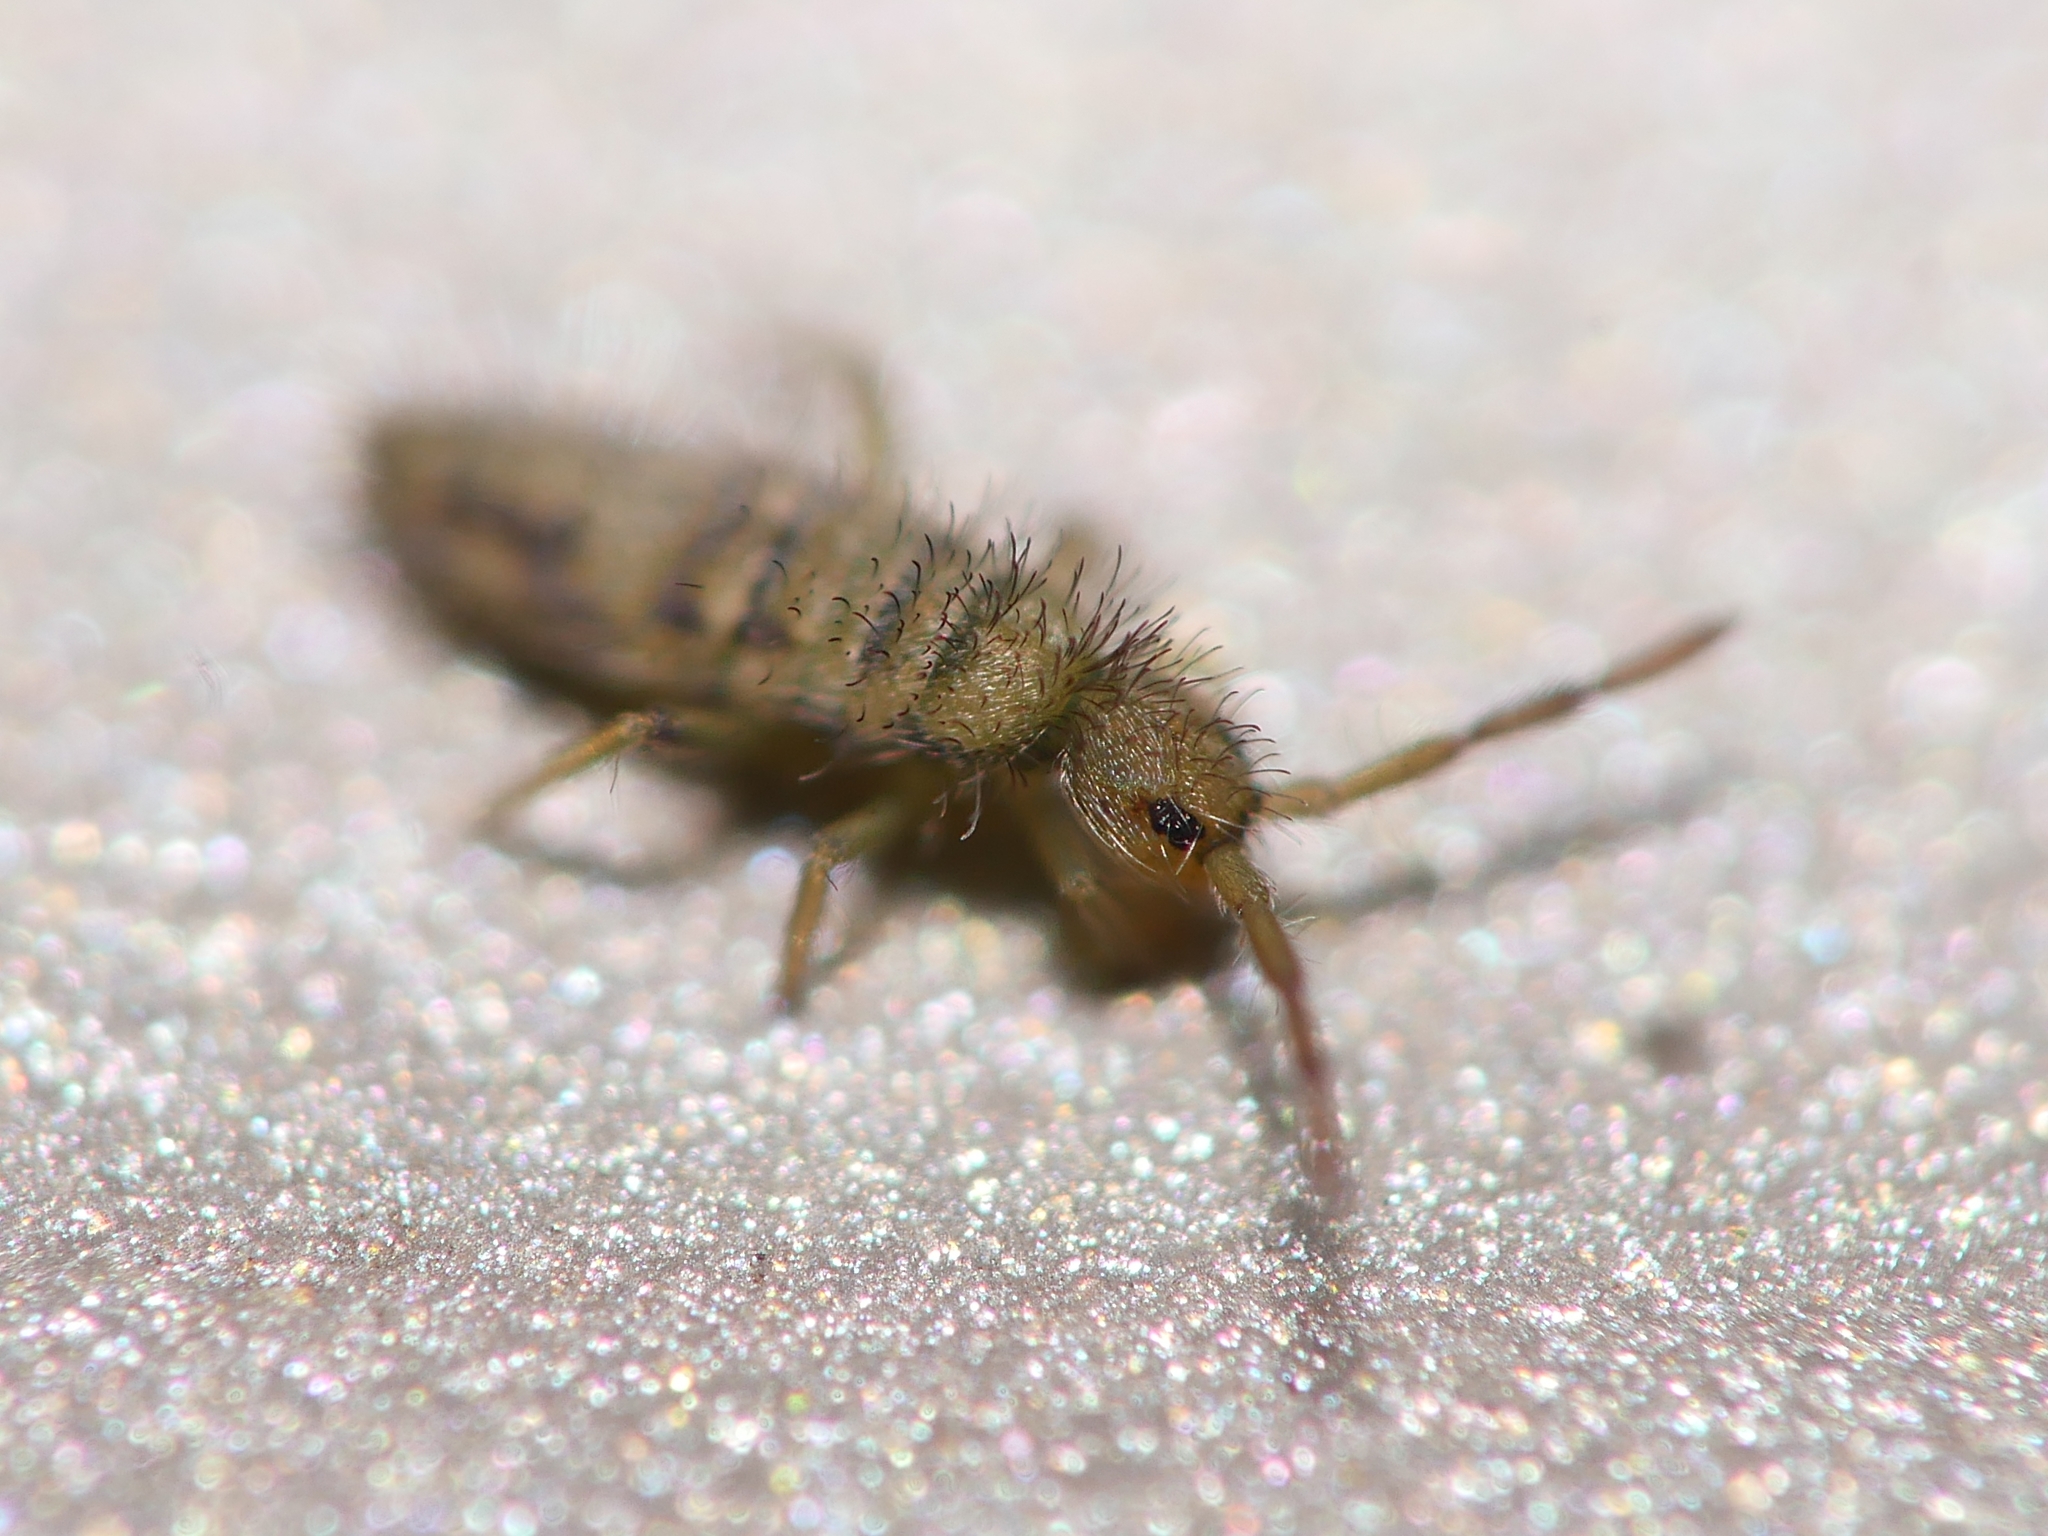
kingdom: Animalia
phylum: Arthropoda
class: Collembola
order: Entomobryomorpha
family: Entomobryidae
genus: Entomobrya
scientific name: Entomobrya nivalis
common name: Cosmopolitan springtail
